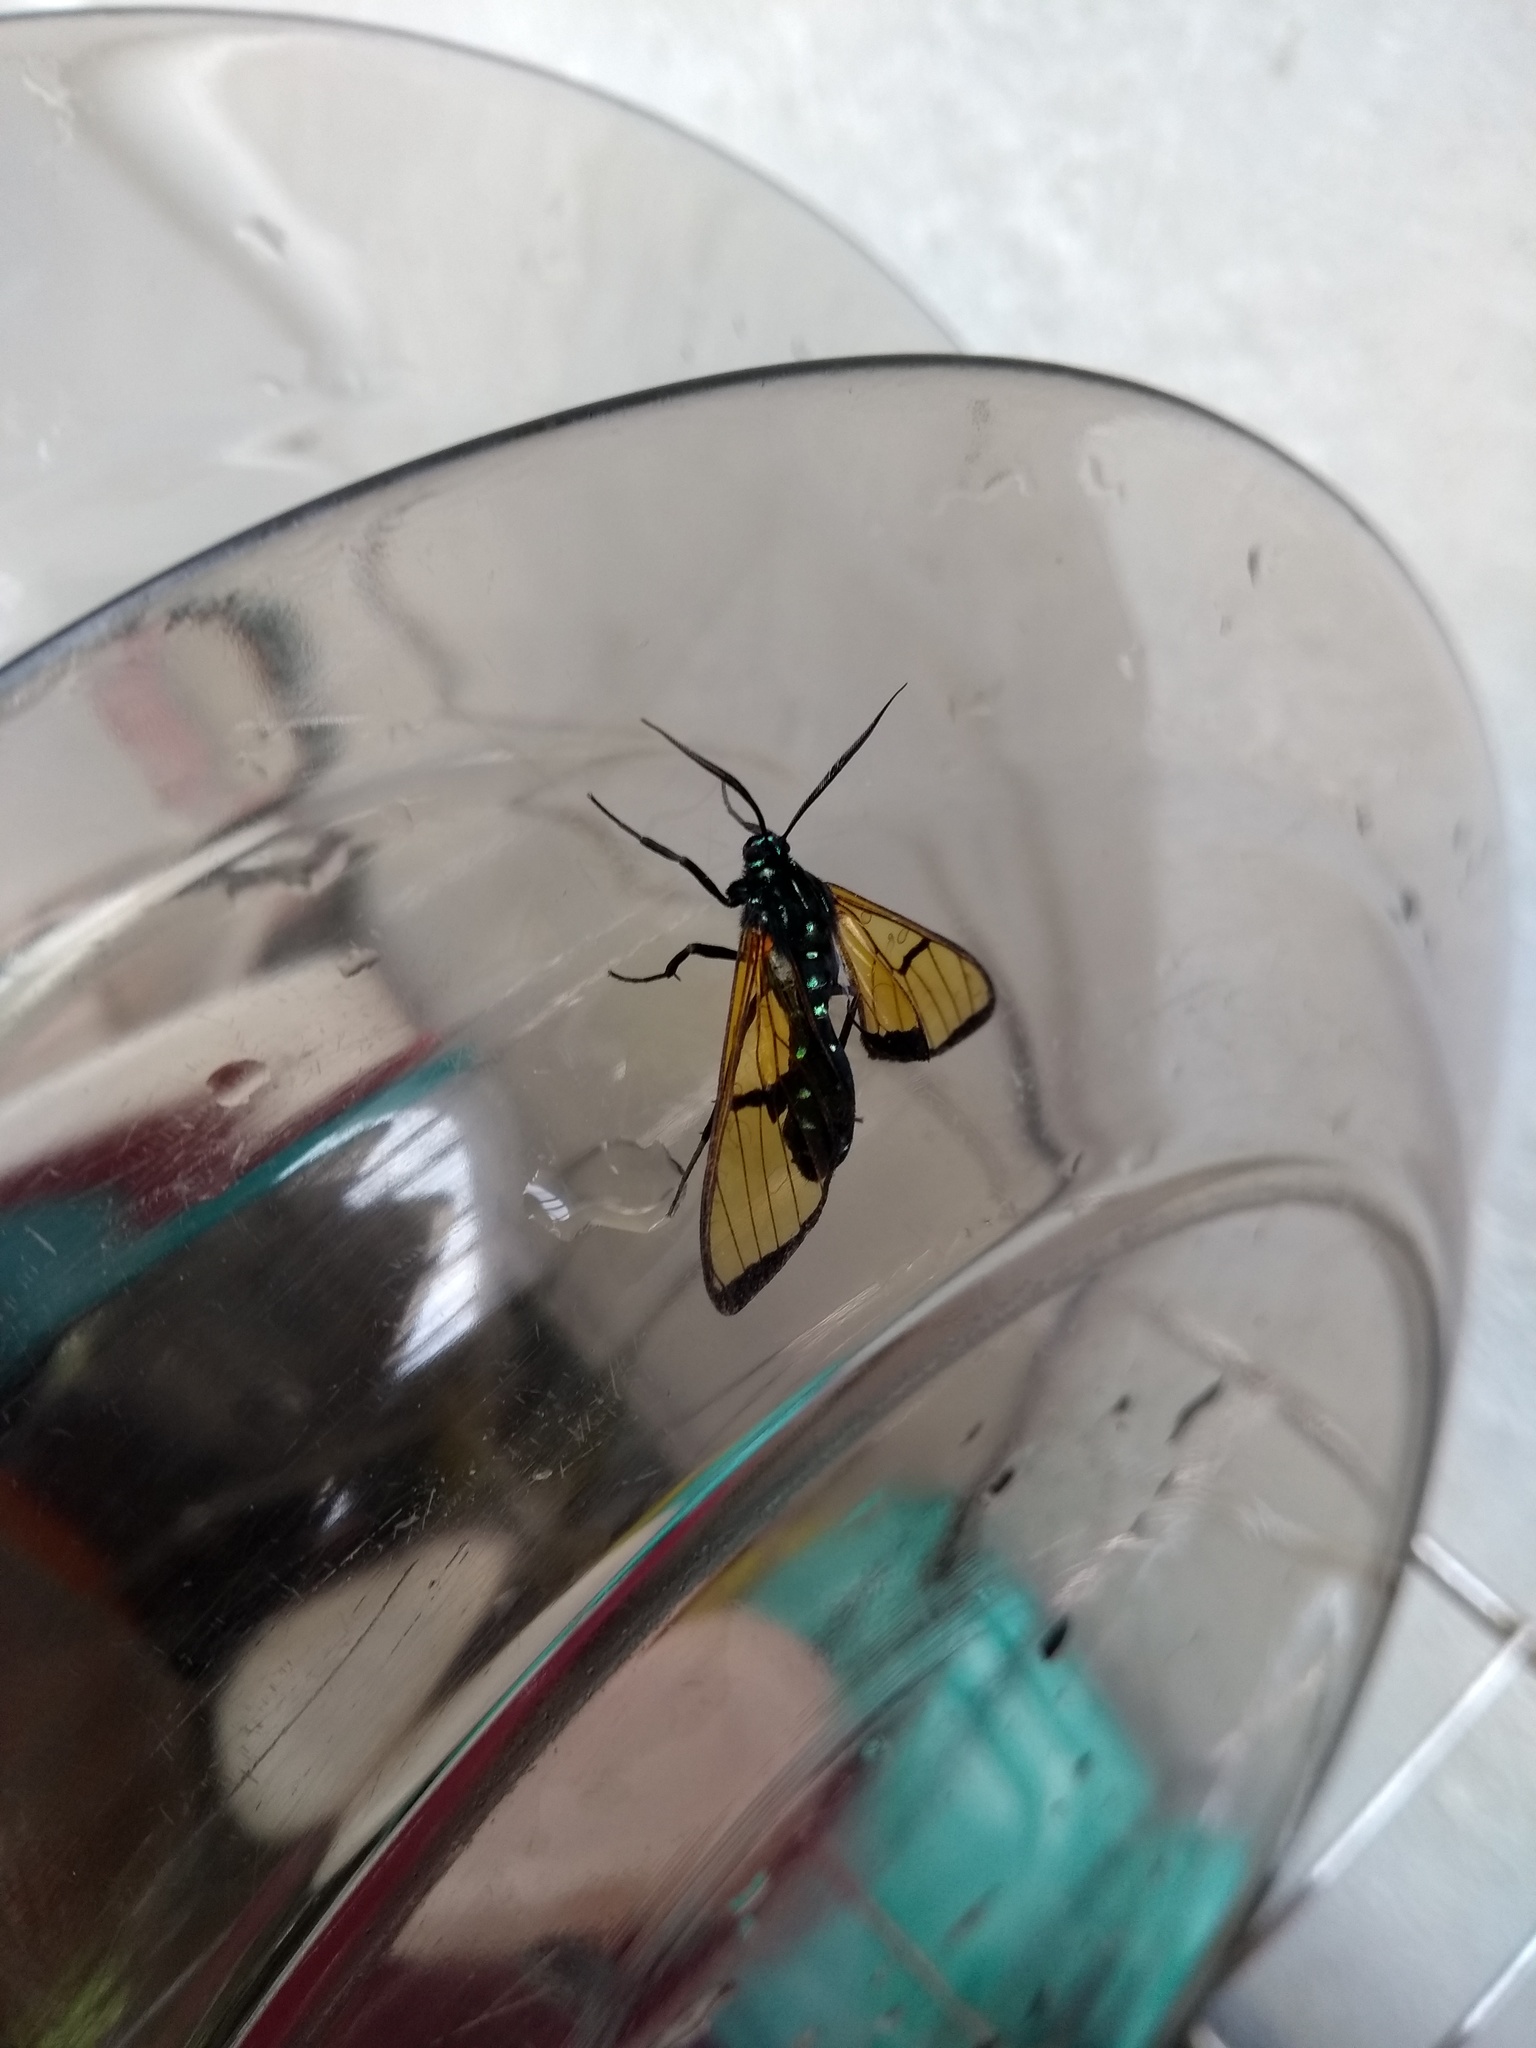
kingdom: Animalia
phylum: Arthropoda
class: Insecta
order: Lepidoptera
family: Erebidae
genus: Trichura
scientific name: Trichura melanosoma
